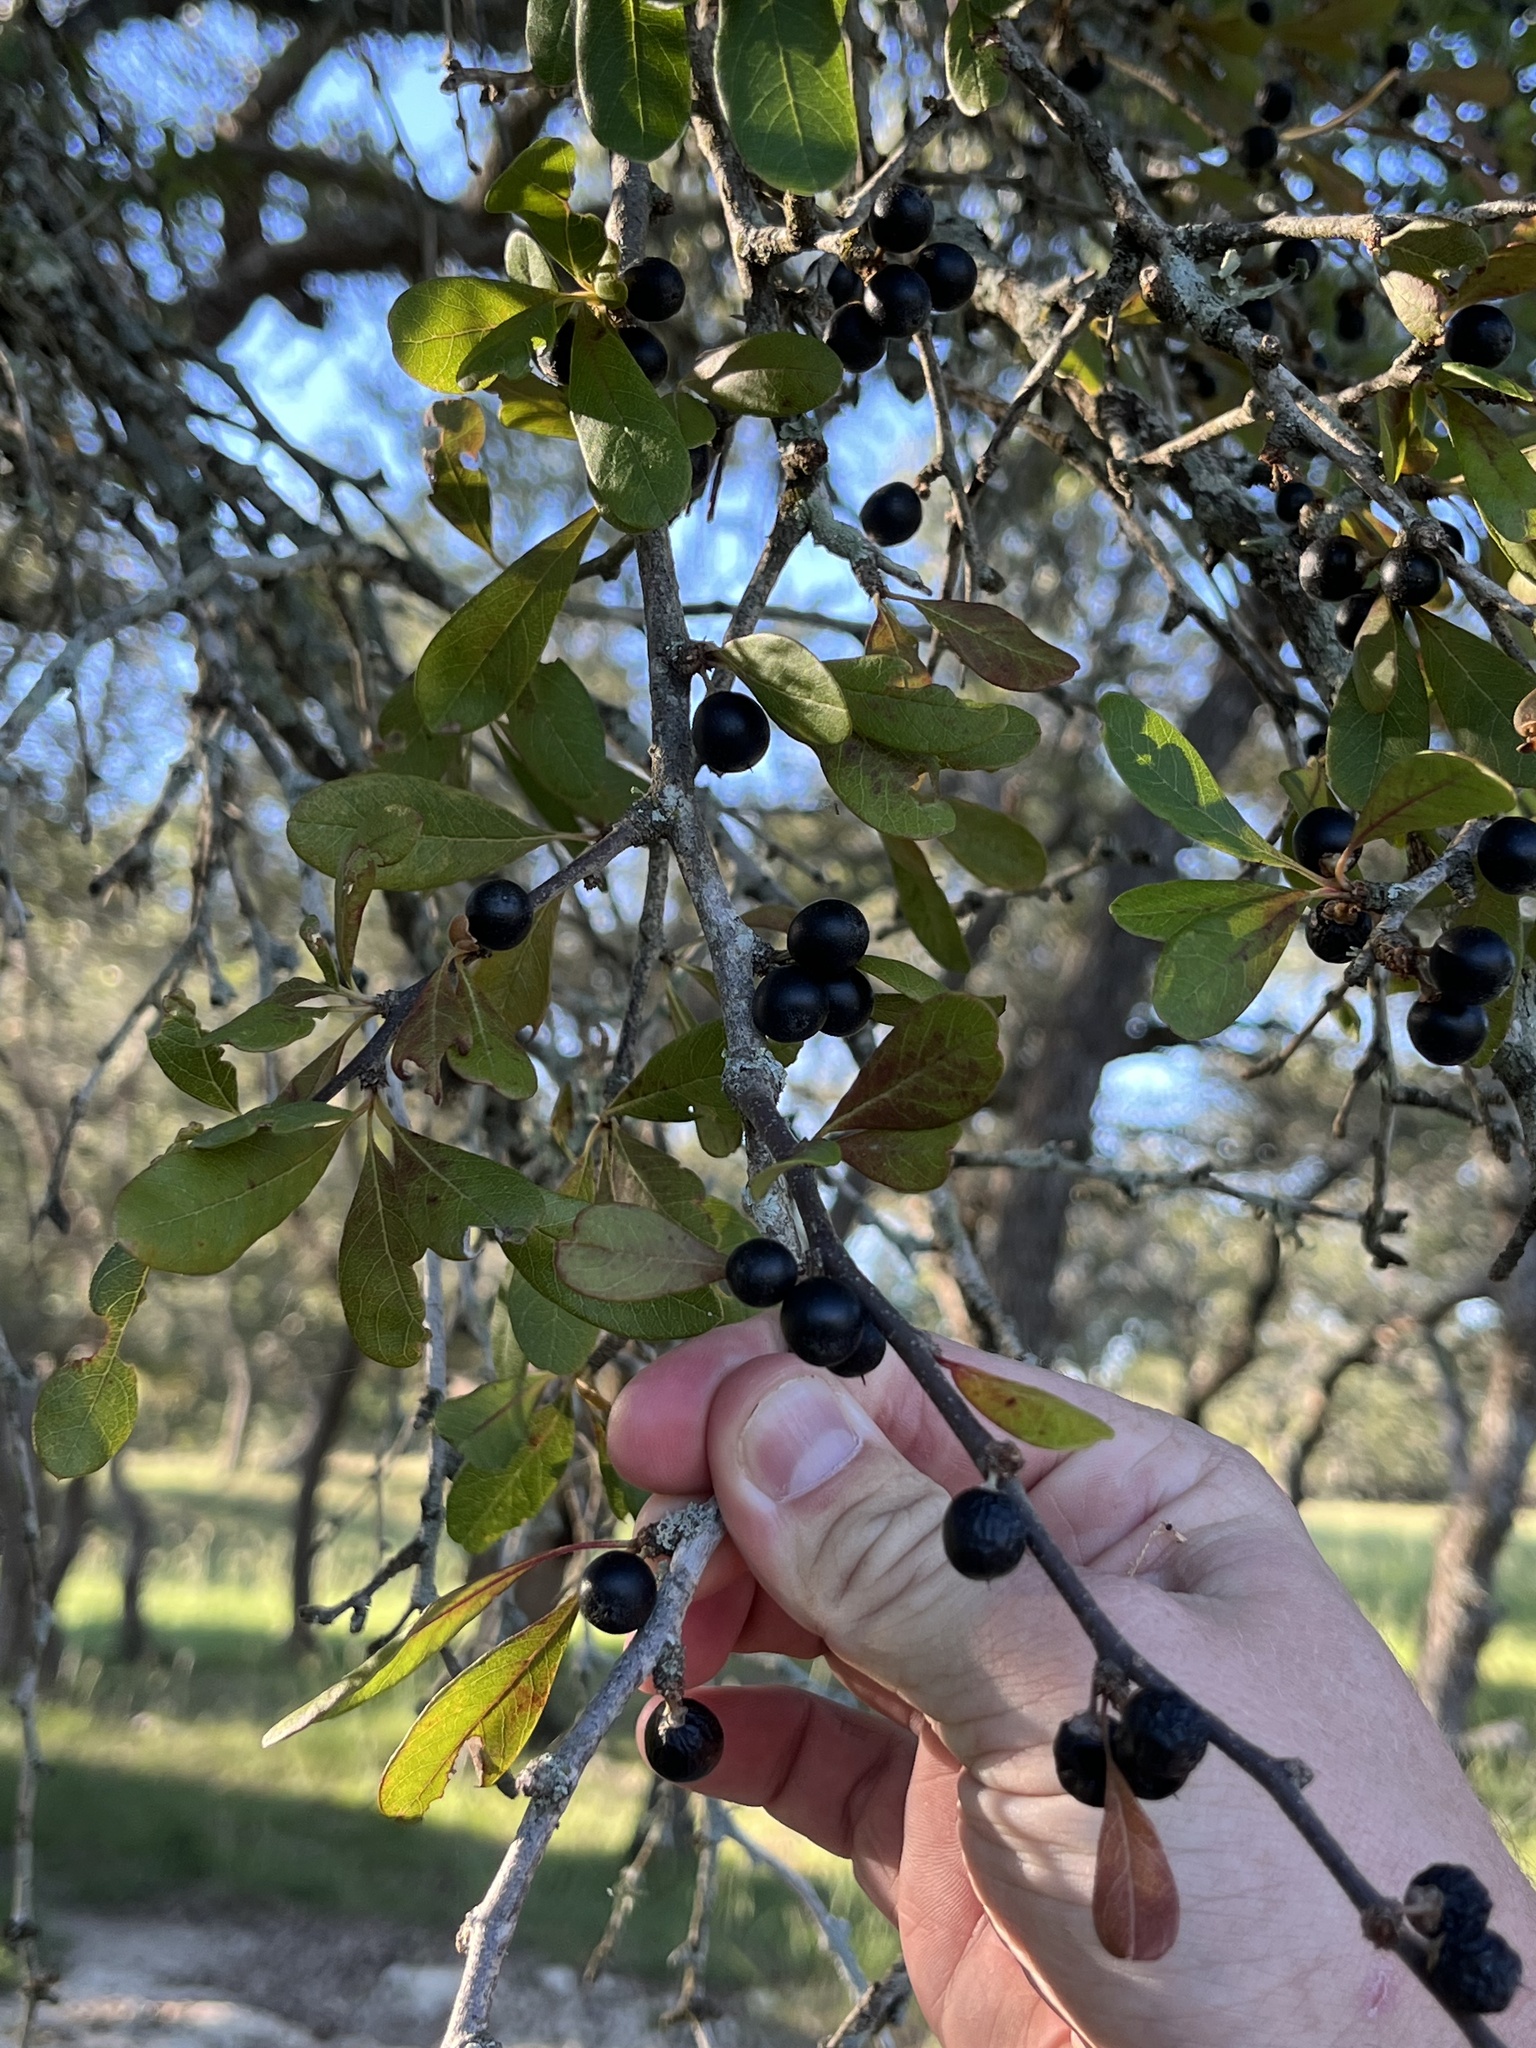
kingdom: Plantae
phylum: Tracheophyta
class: Magnoliopsida
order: Ericales
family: Sapotaceae
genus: Sideroxylon
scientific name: Sideroxylon lanuginosum
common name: Chittamwood
